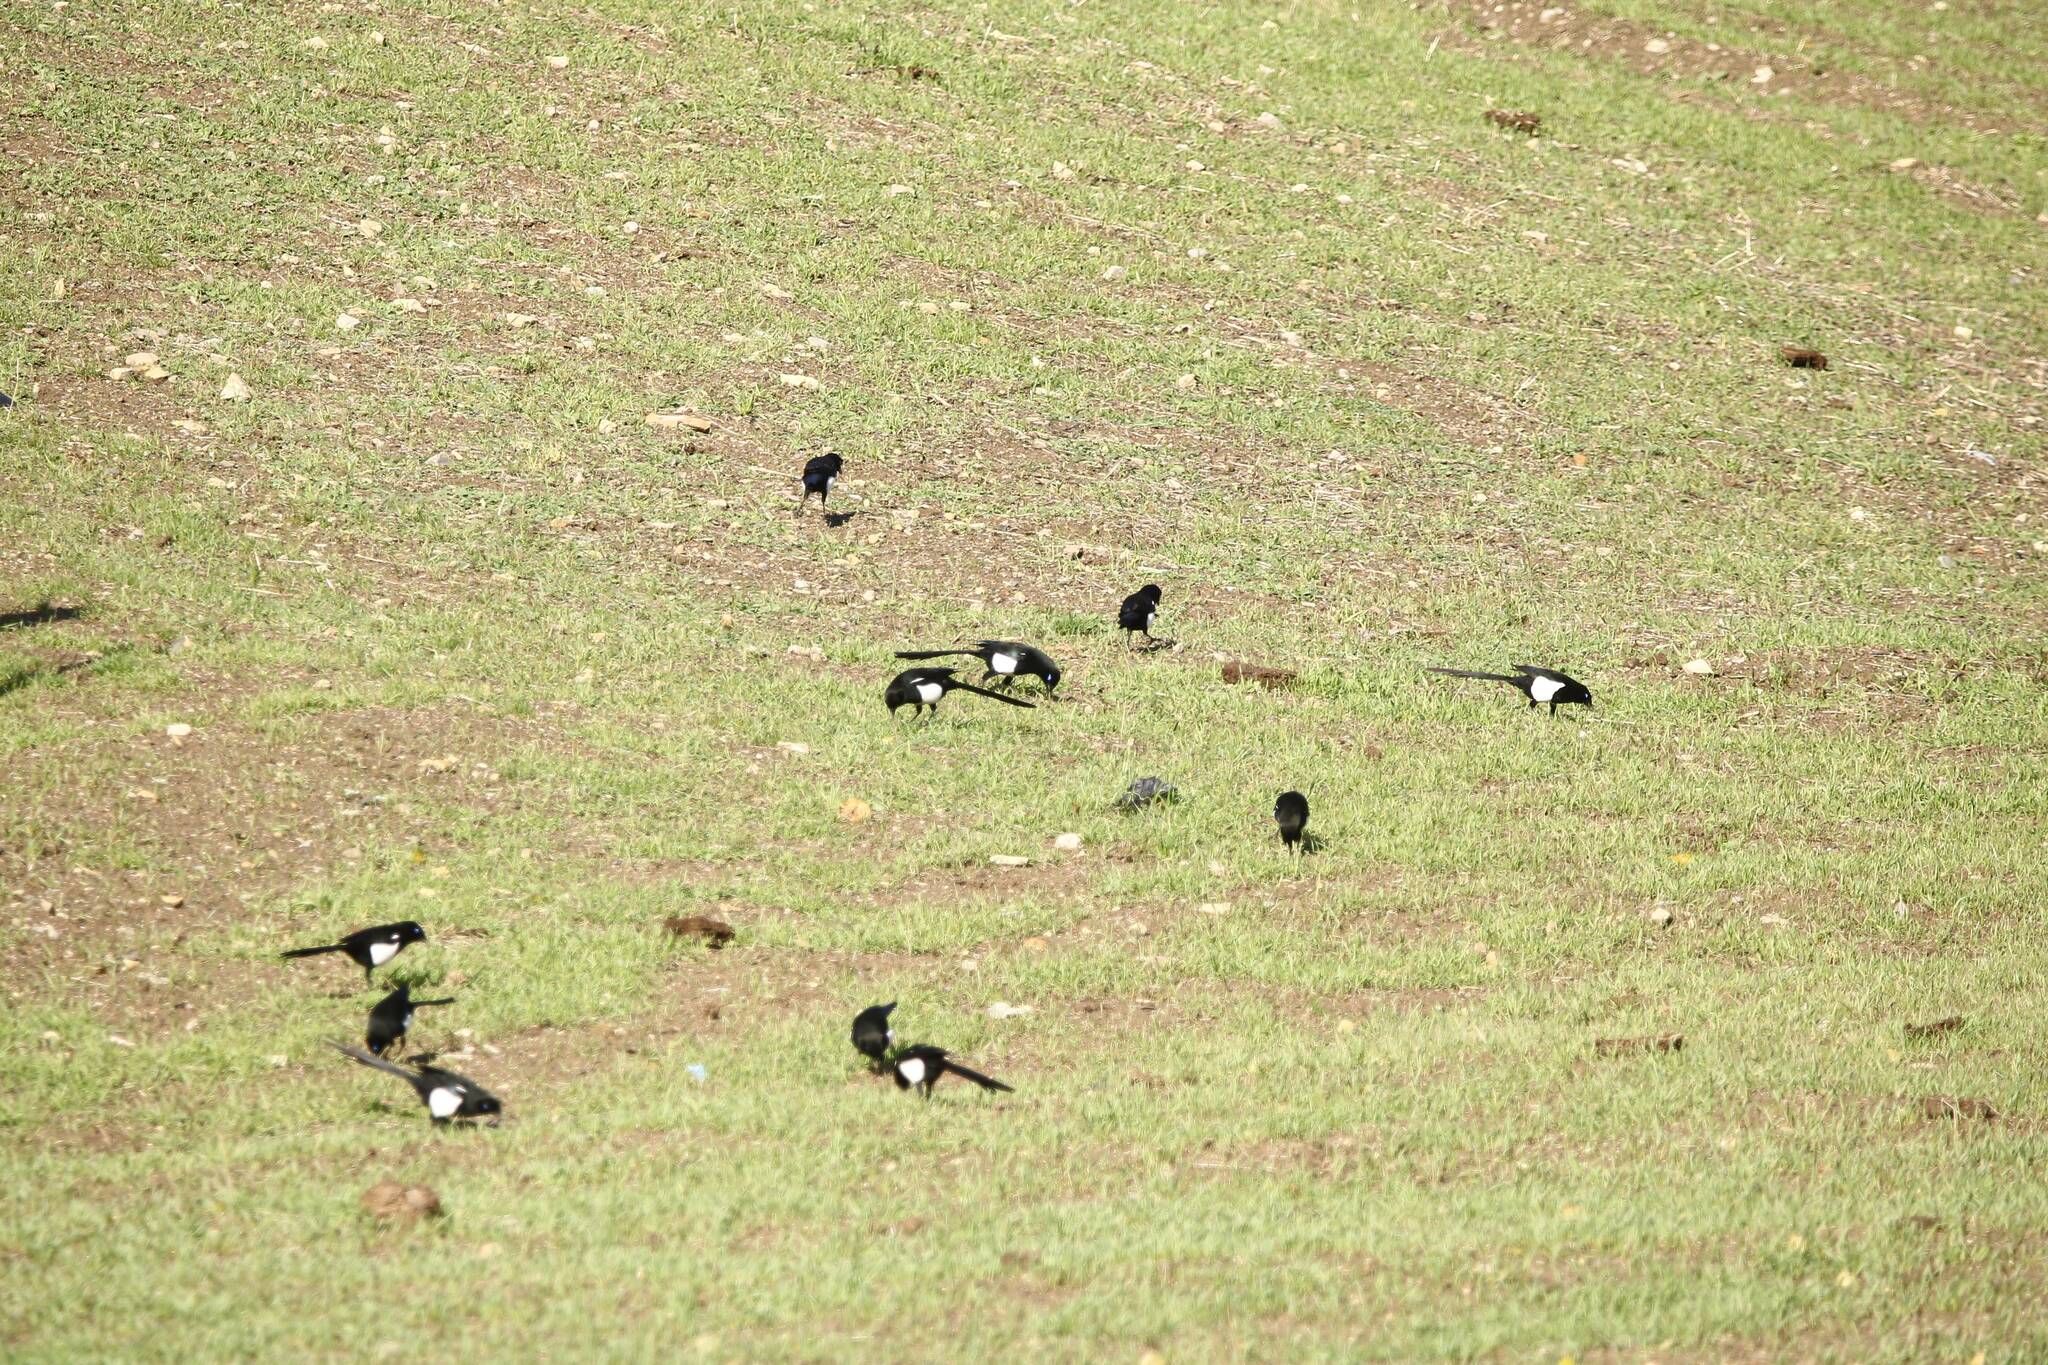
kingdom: Animalia
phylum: Chordata
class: Aves
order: Passeriformes
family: Corvidae
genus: Pica
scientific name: Pica mauritanica
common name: Maghreb magpie
